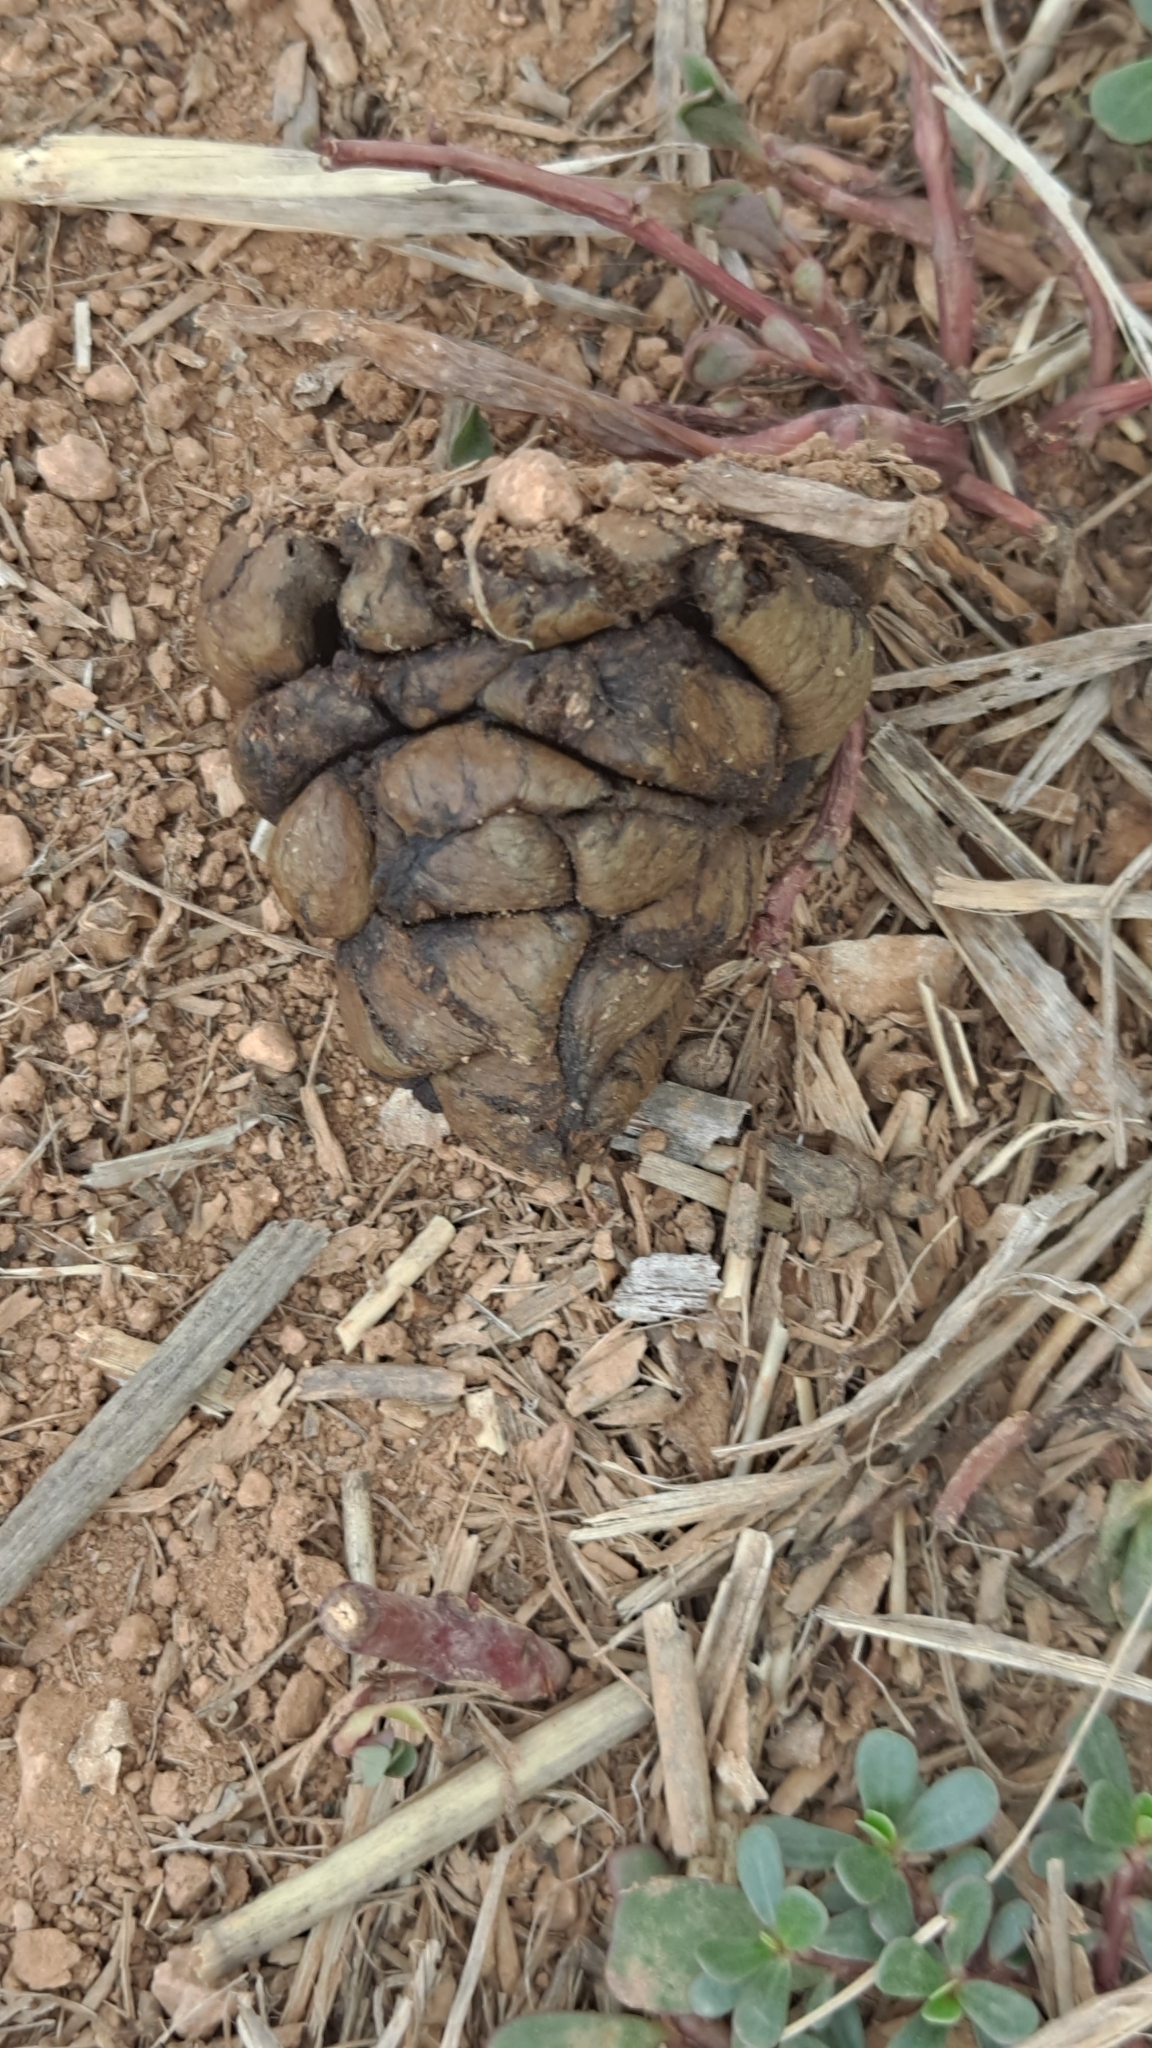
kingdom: Animalia
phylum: Chordata
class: Mammalia
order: Artiodactyla
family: Suidae
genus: Sus
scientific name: Sus scrofa
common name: Wild boar
